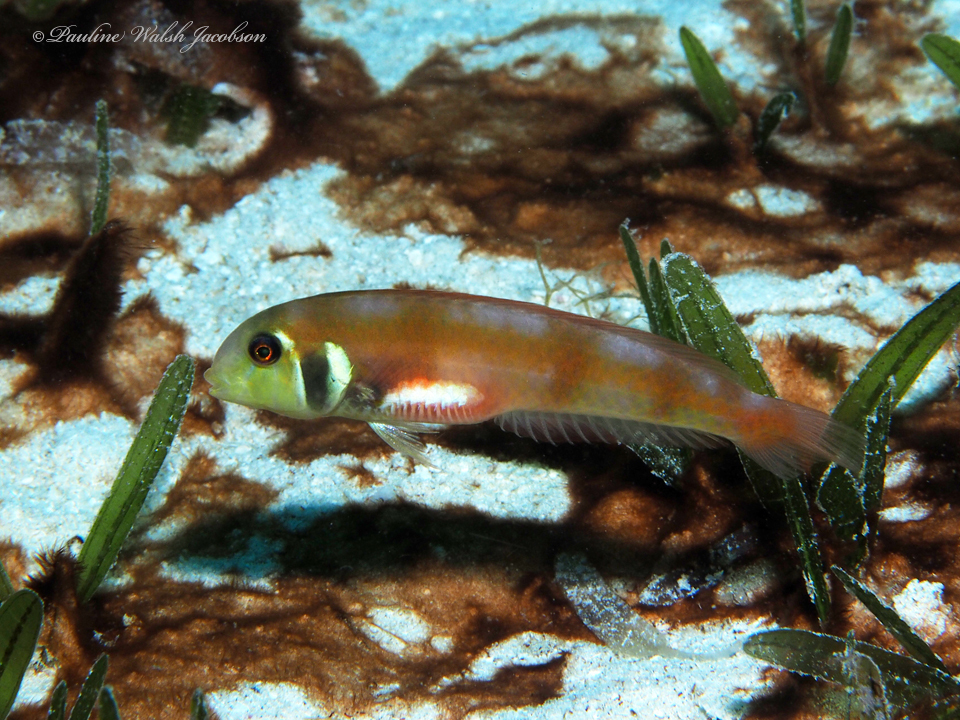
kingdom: Animalia
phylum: Chordata
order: Perciformes
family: Labridae
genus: Xyrichtys
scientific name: Xyrichtys martinicensis
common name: Rosy razorfish
